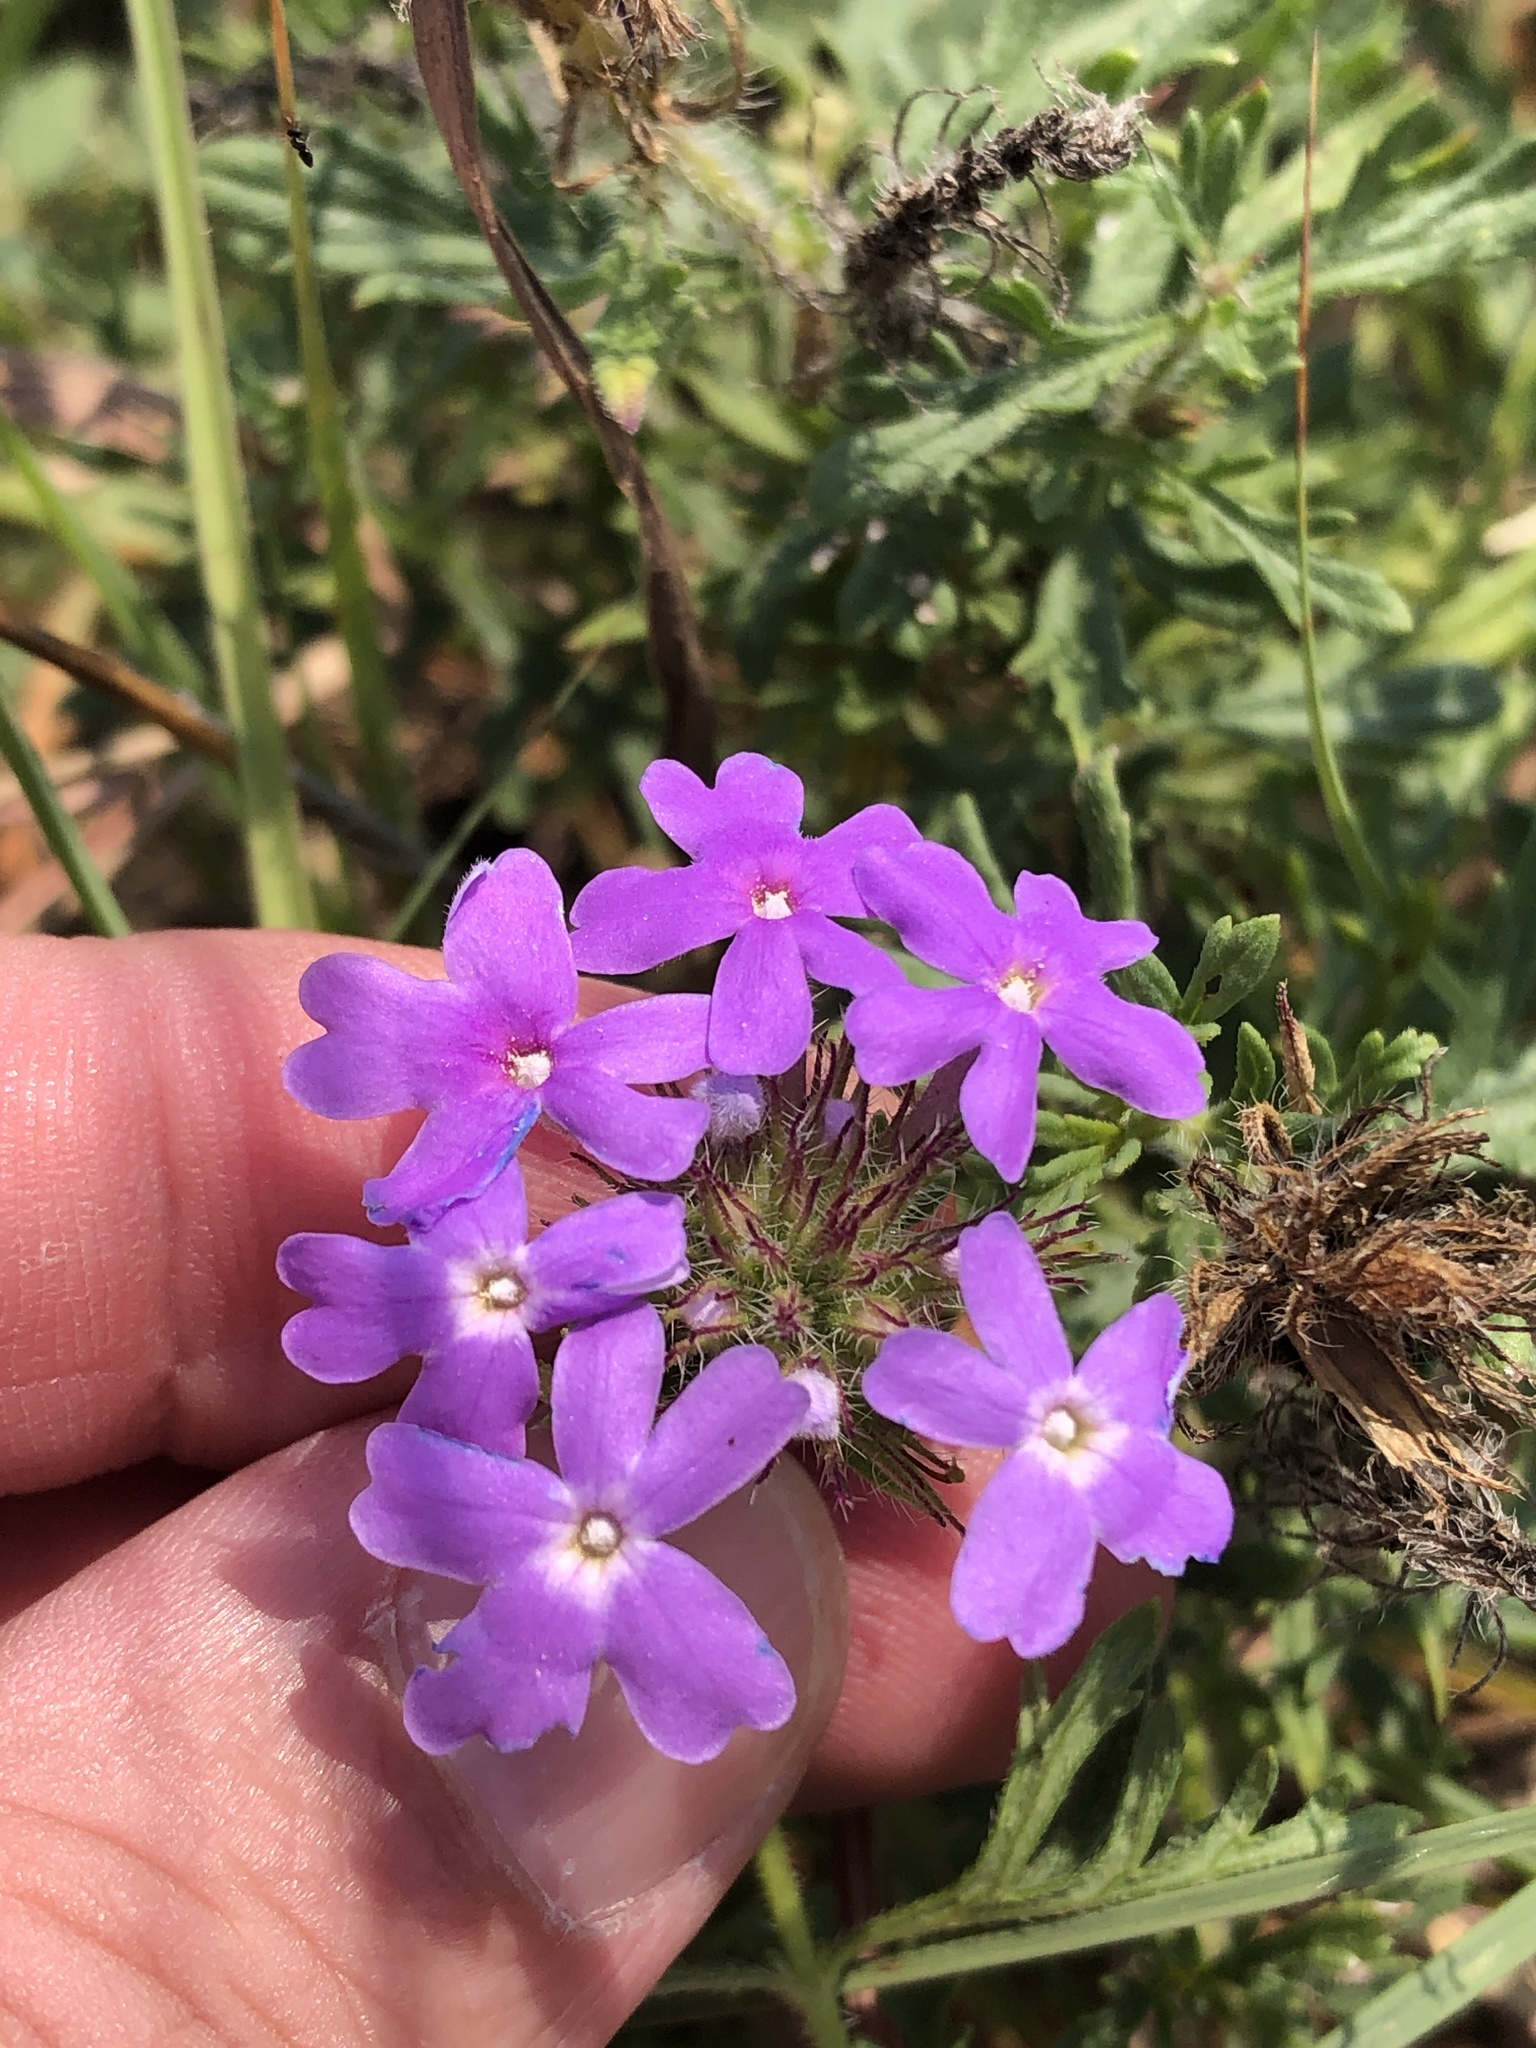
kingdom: Plantae
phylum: Tracheophyta
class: Magnoliopsida
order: Lamiales
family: Verbenaceae
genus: Verbena
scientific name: Verbena bipinnatifida
